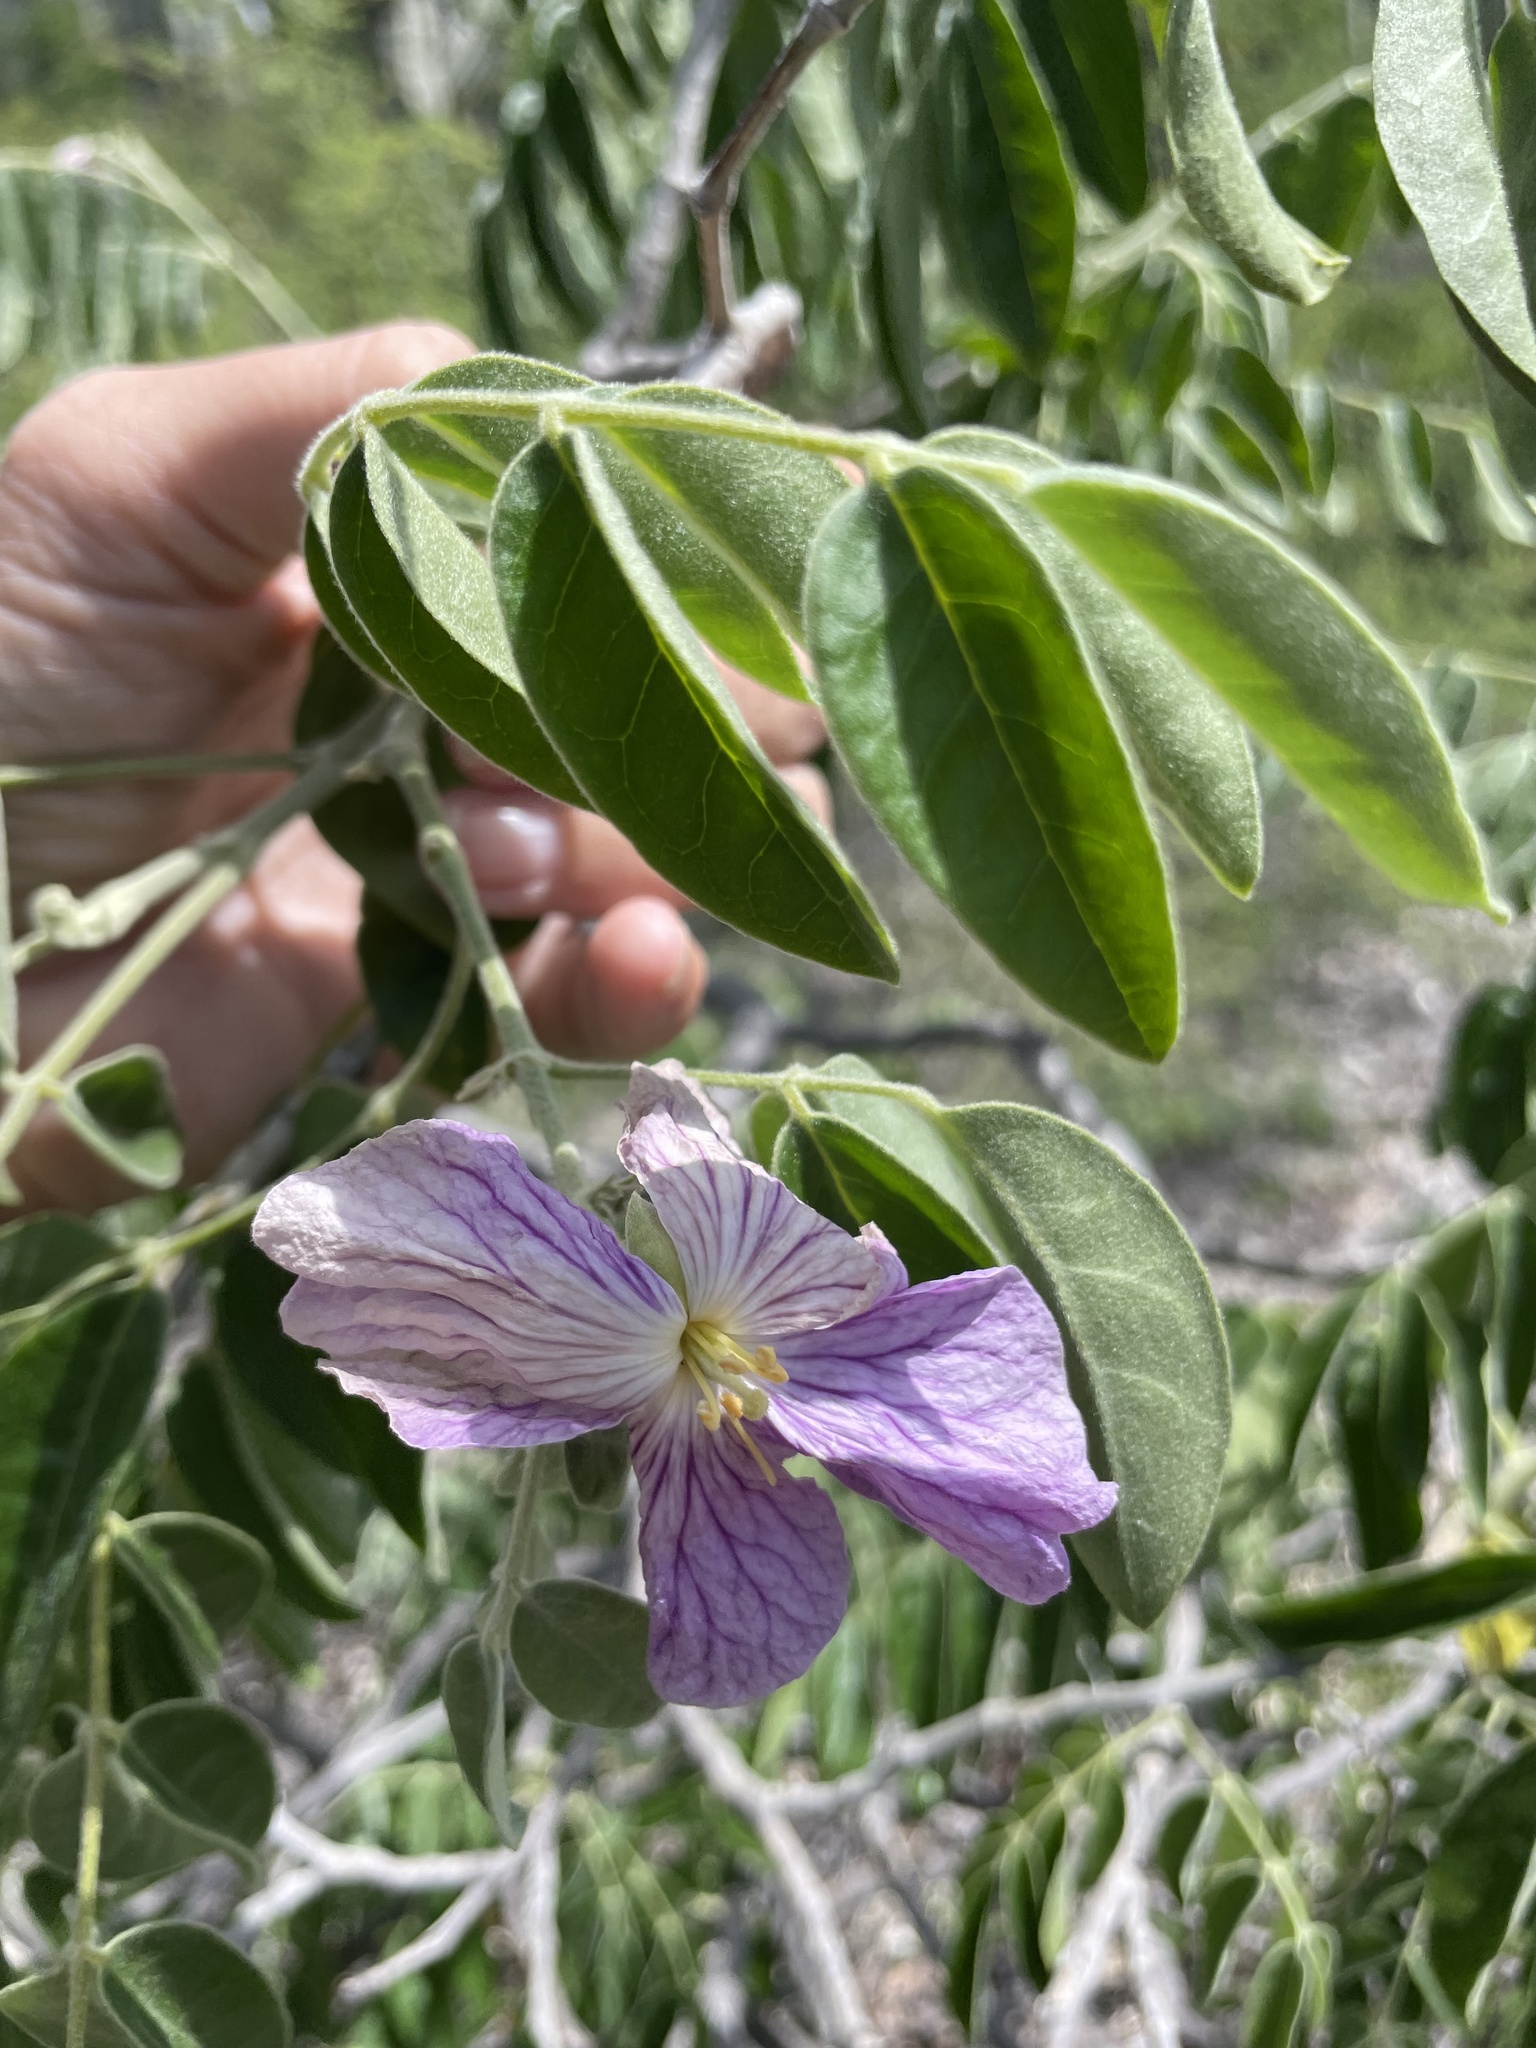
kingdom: Plantae
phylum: Tracheophyta
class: Magnoliopsida
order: Zygophyllales
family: Zygophyllaceae
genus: Morkillia
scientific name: Morkillia mexicana
